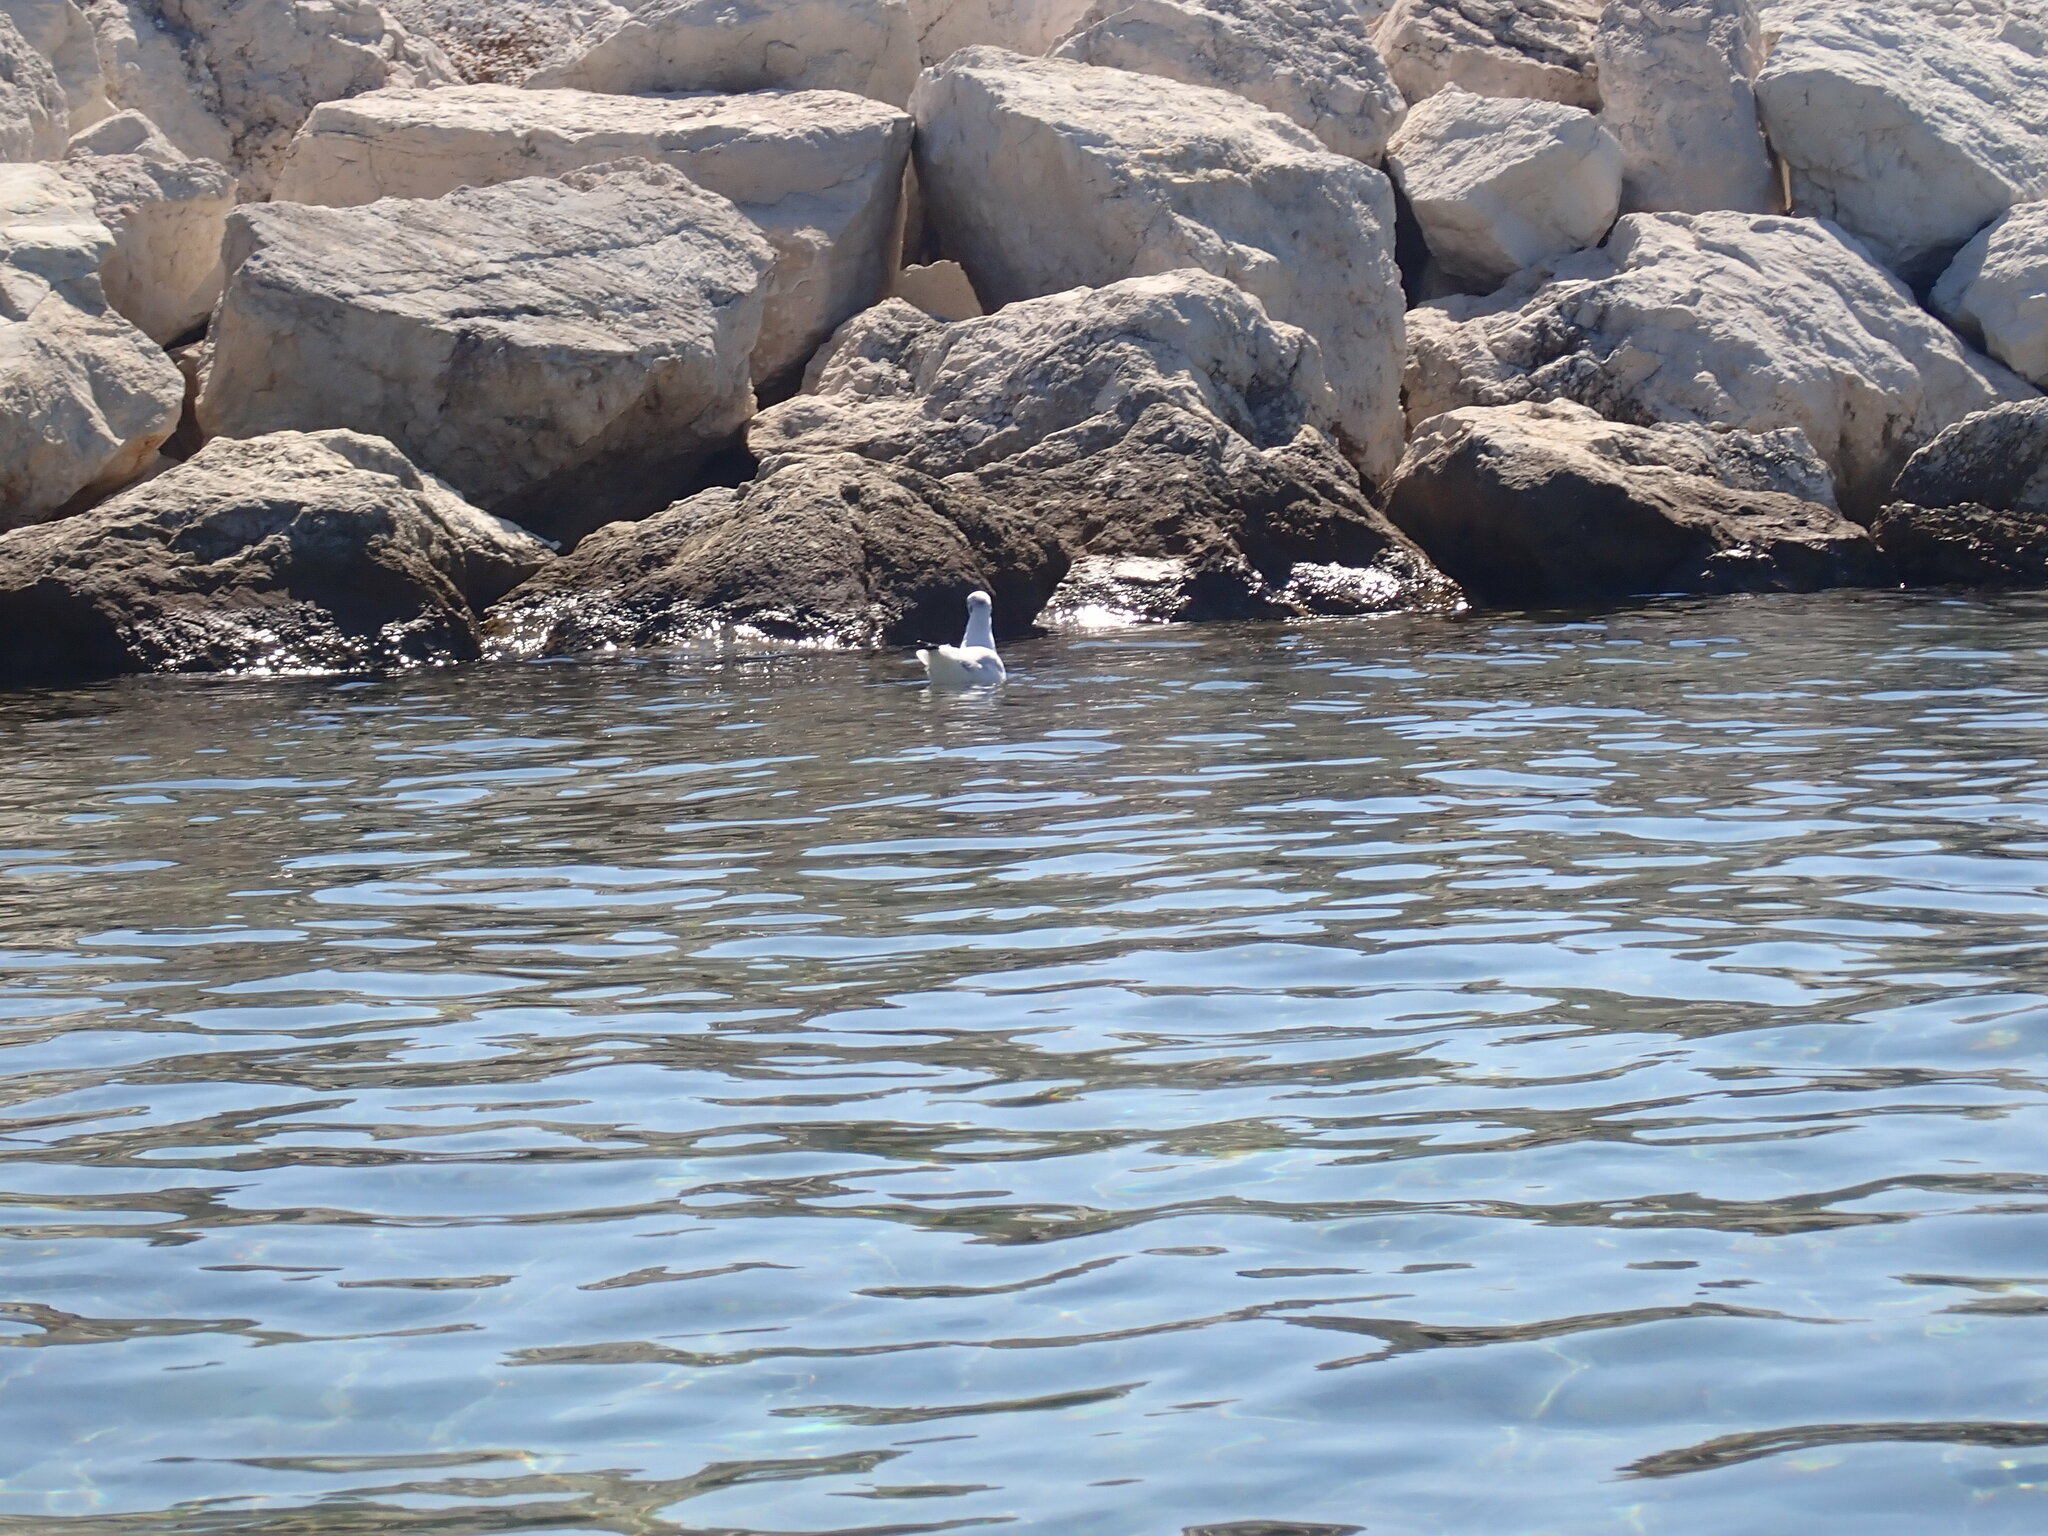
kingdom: Animalia
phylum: Chordata
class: Aves
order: Charadriiformes
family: Laridae
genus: Chroicocephalus
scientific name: Chroicocephalus ridibundus
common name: Black-headed gull
